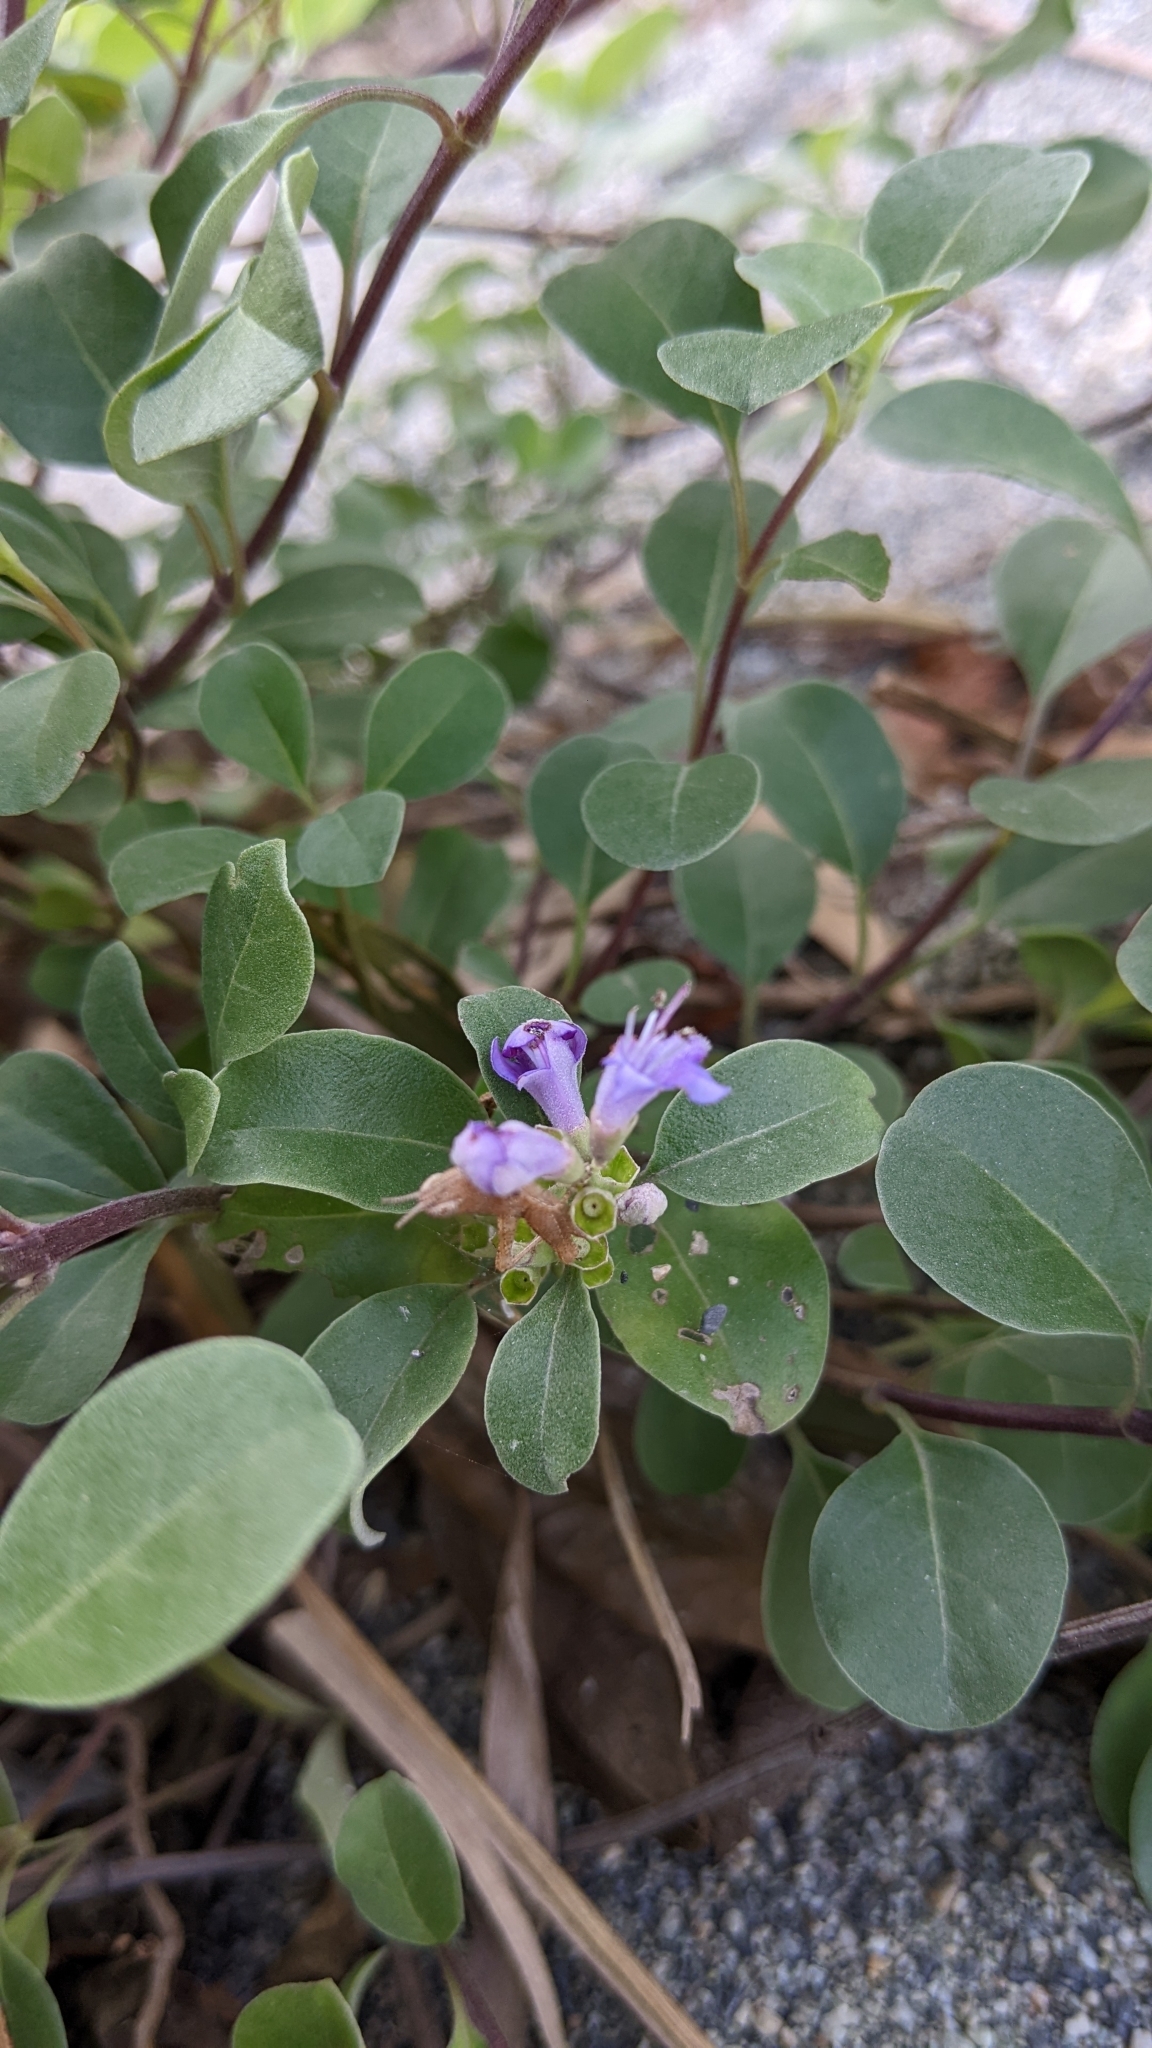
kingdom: Plantae
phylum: Tracheophyta
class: Magnoliopsida
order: Lamiales
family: Lamiaceae
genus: Vitex
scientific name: Vitex rotundifolia
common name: Beach vitex
